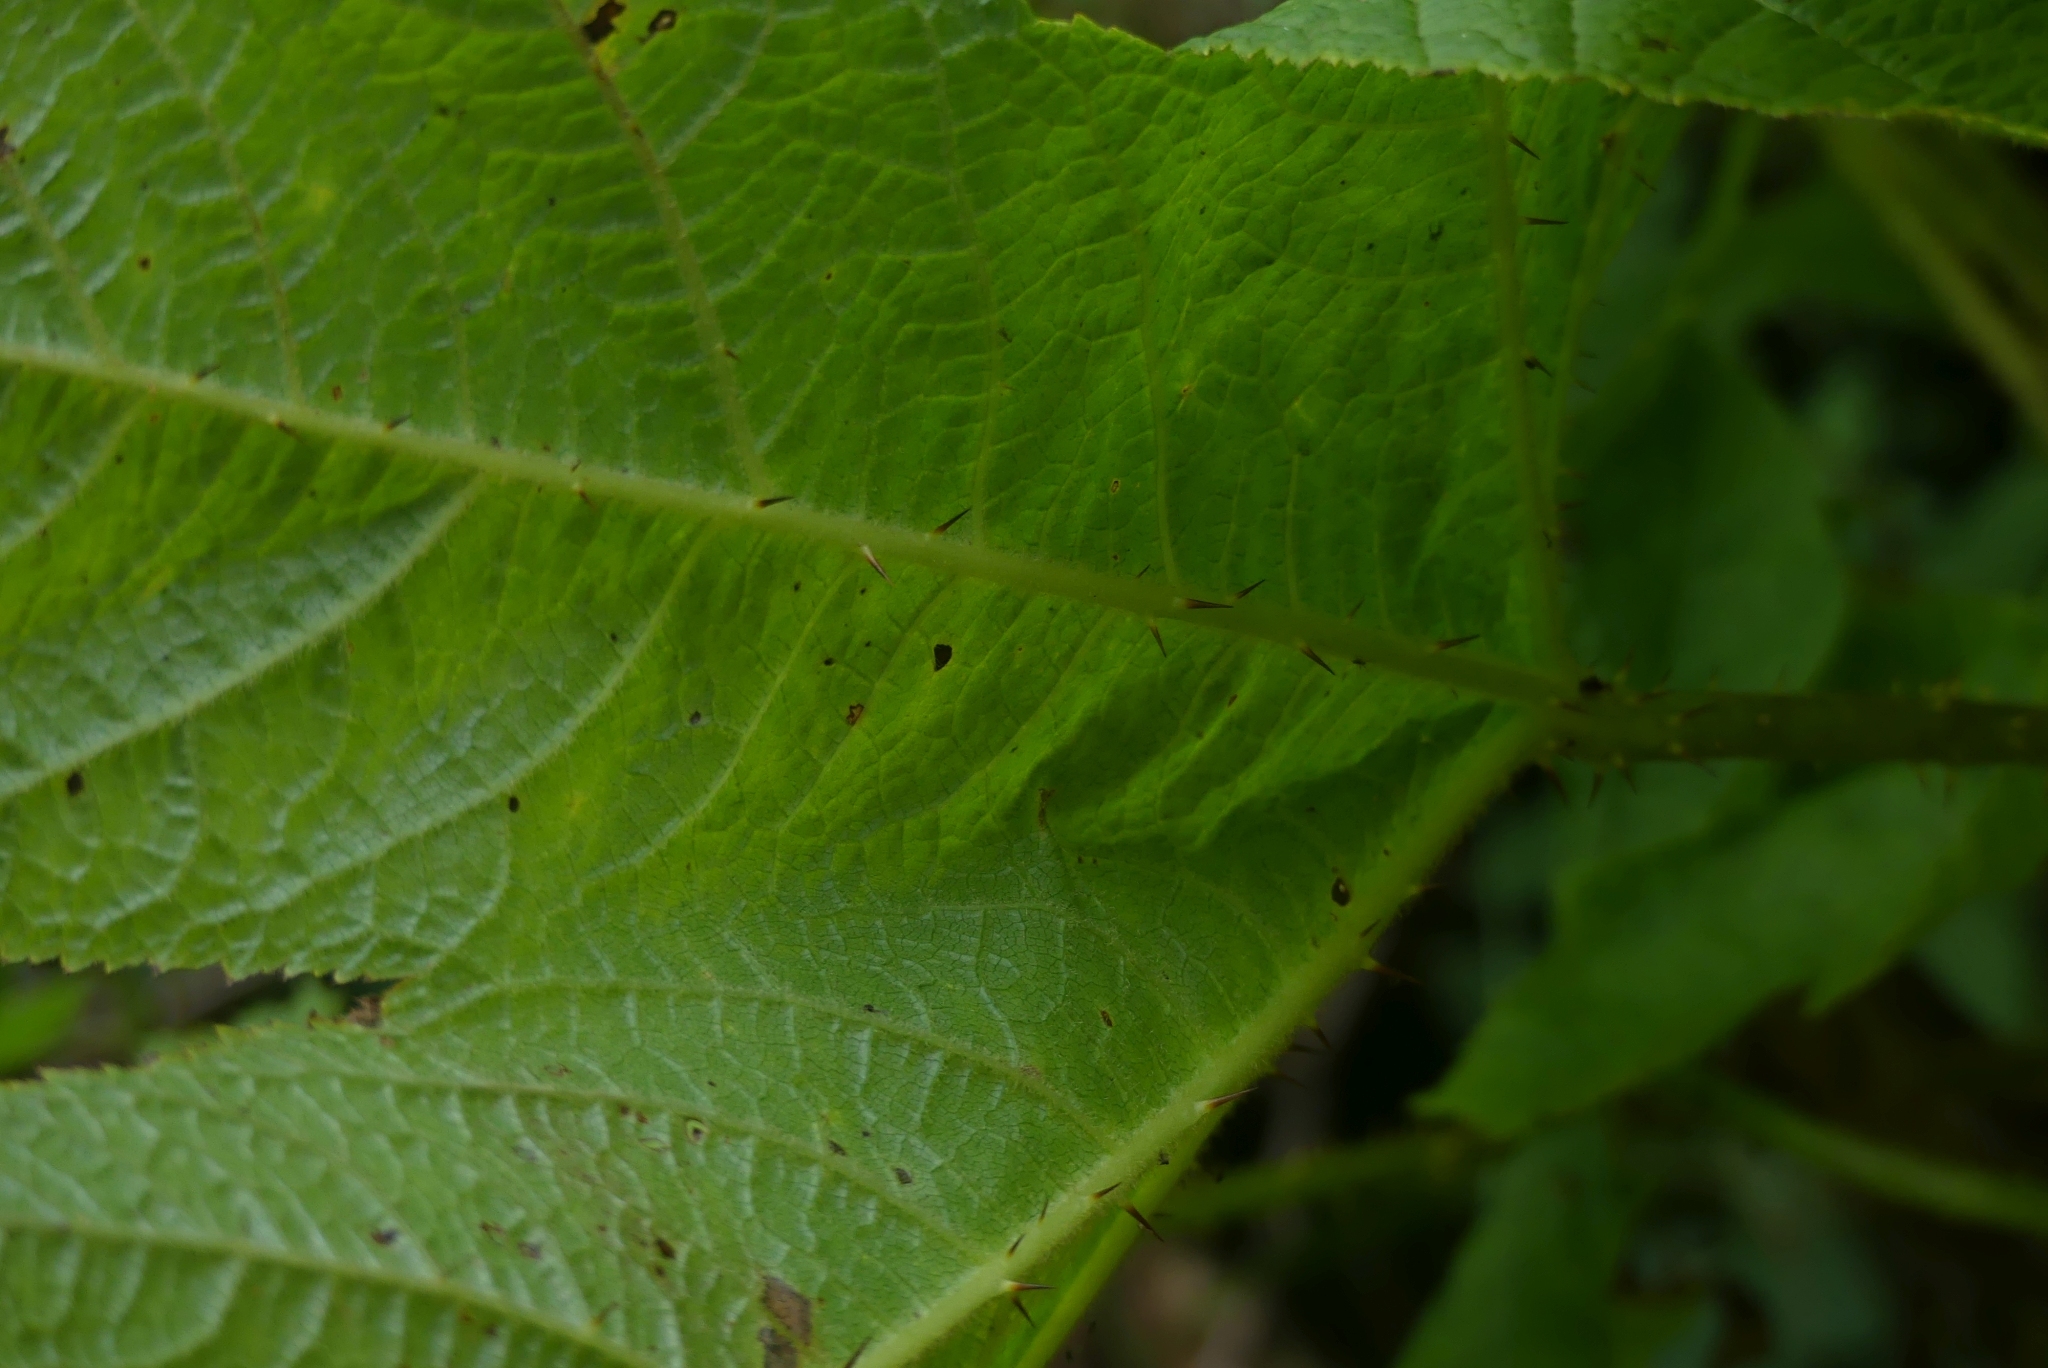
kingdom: Plantae
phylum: Tracheophyta
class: Magnoliopsida
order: Apiales
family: Araliaceae
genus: Oplopanax
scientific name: Oplopanax horridus
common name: Devil's walking-stick
